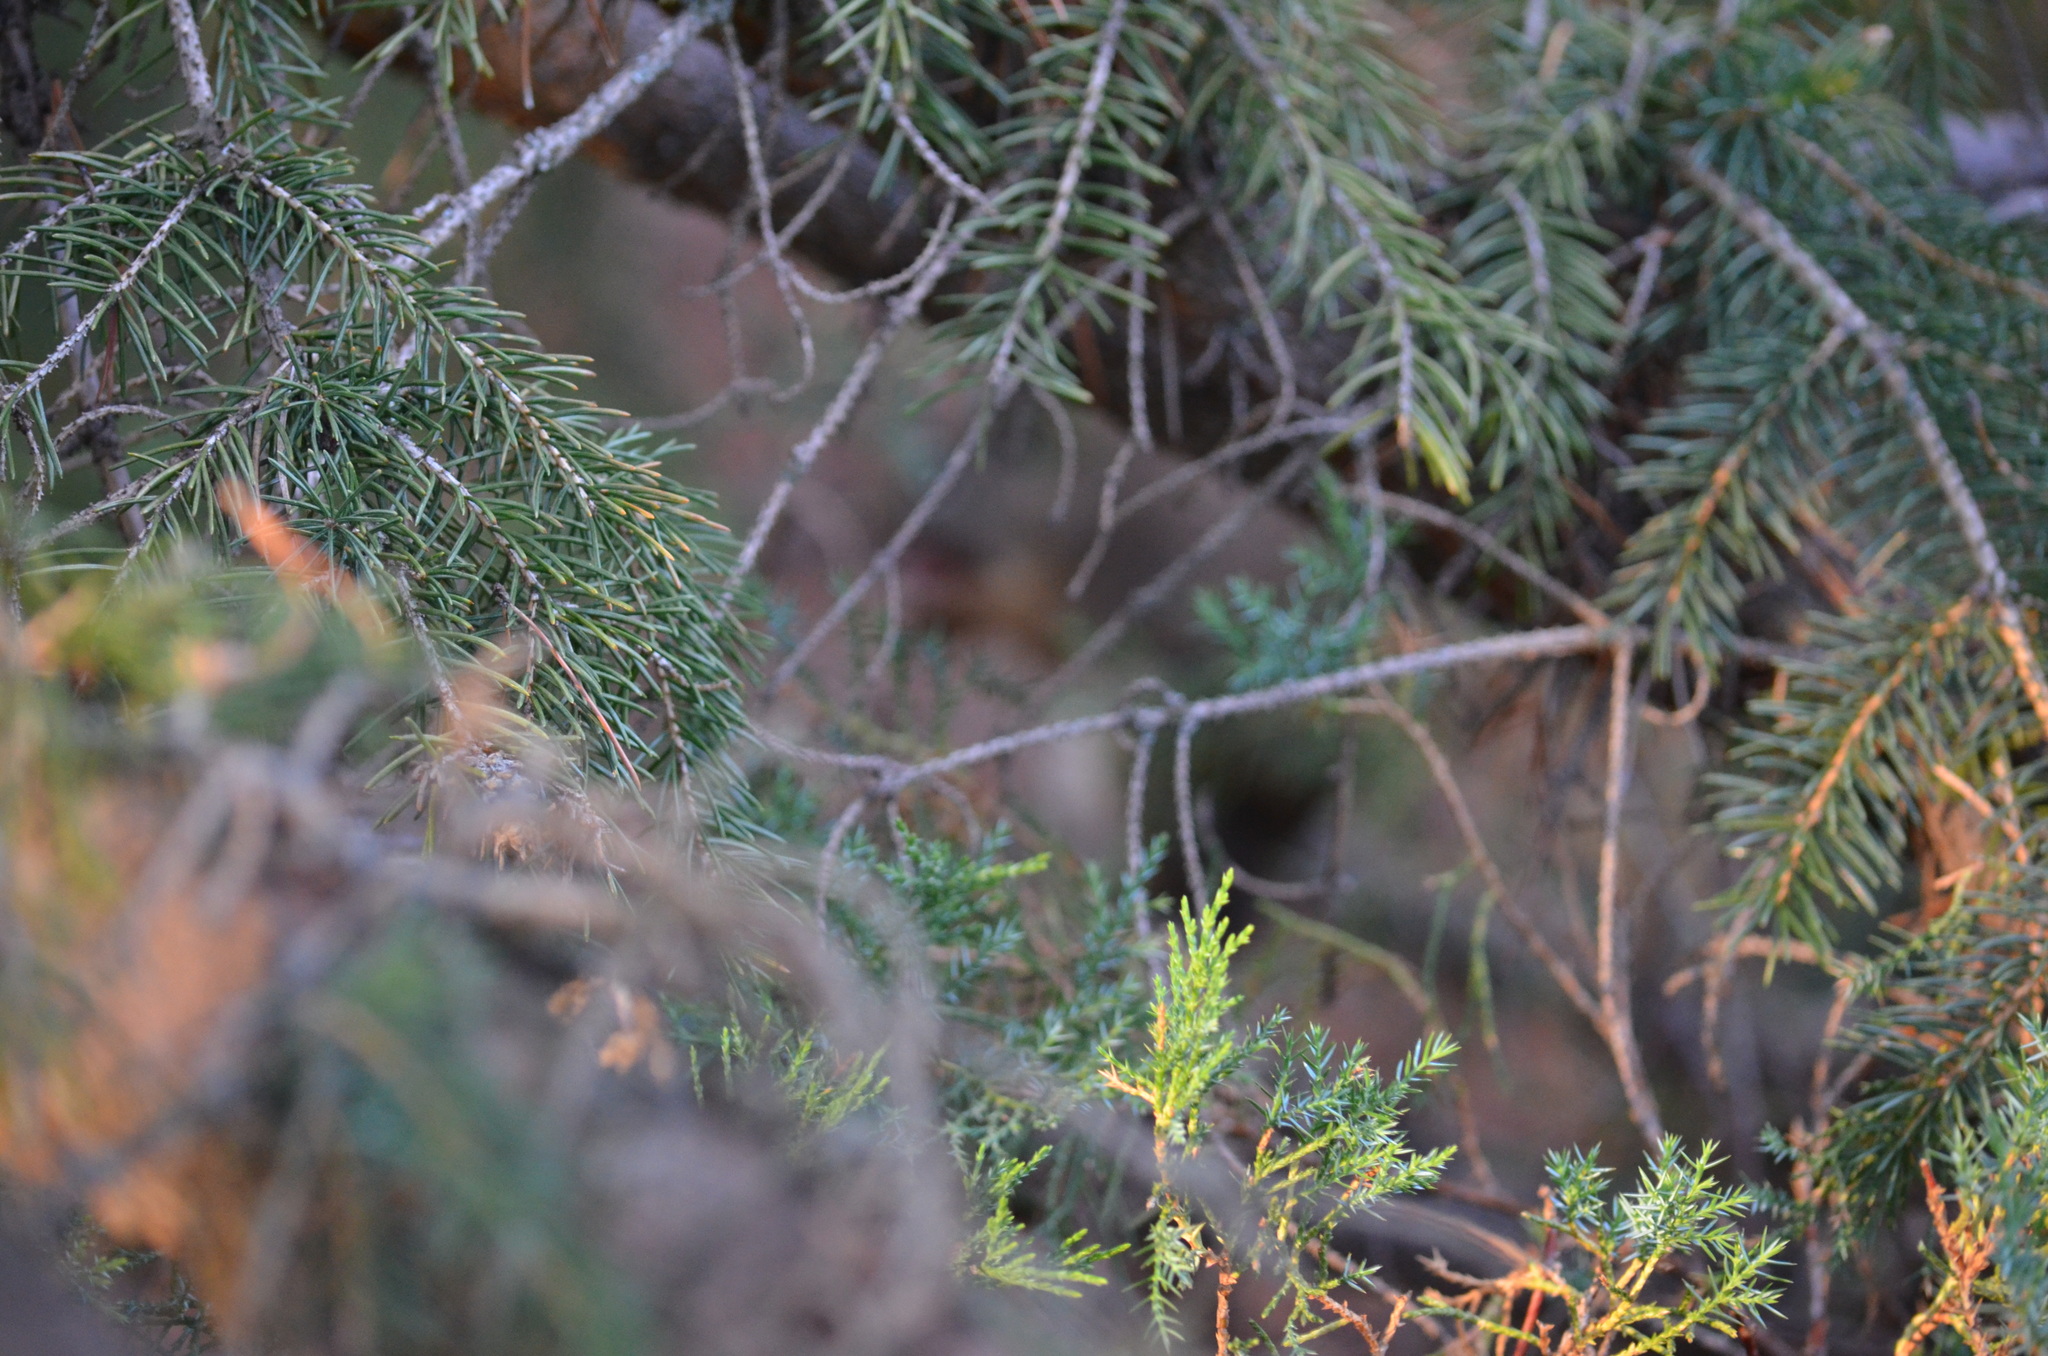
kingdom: Plantae
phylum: Tracheophyta
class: Pinopsida
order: Pinales
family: Pinaceae
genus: Picea
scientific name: Picea glauca
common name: White spruce
